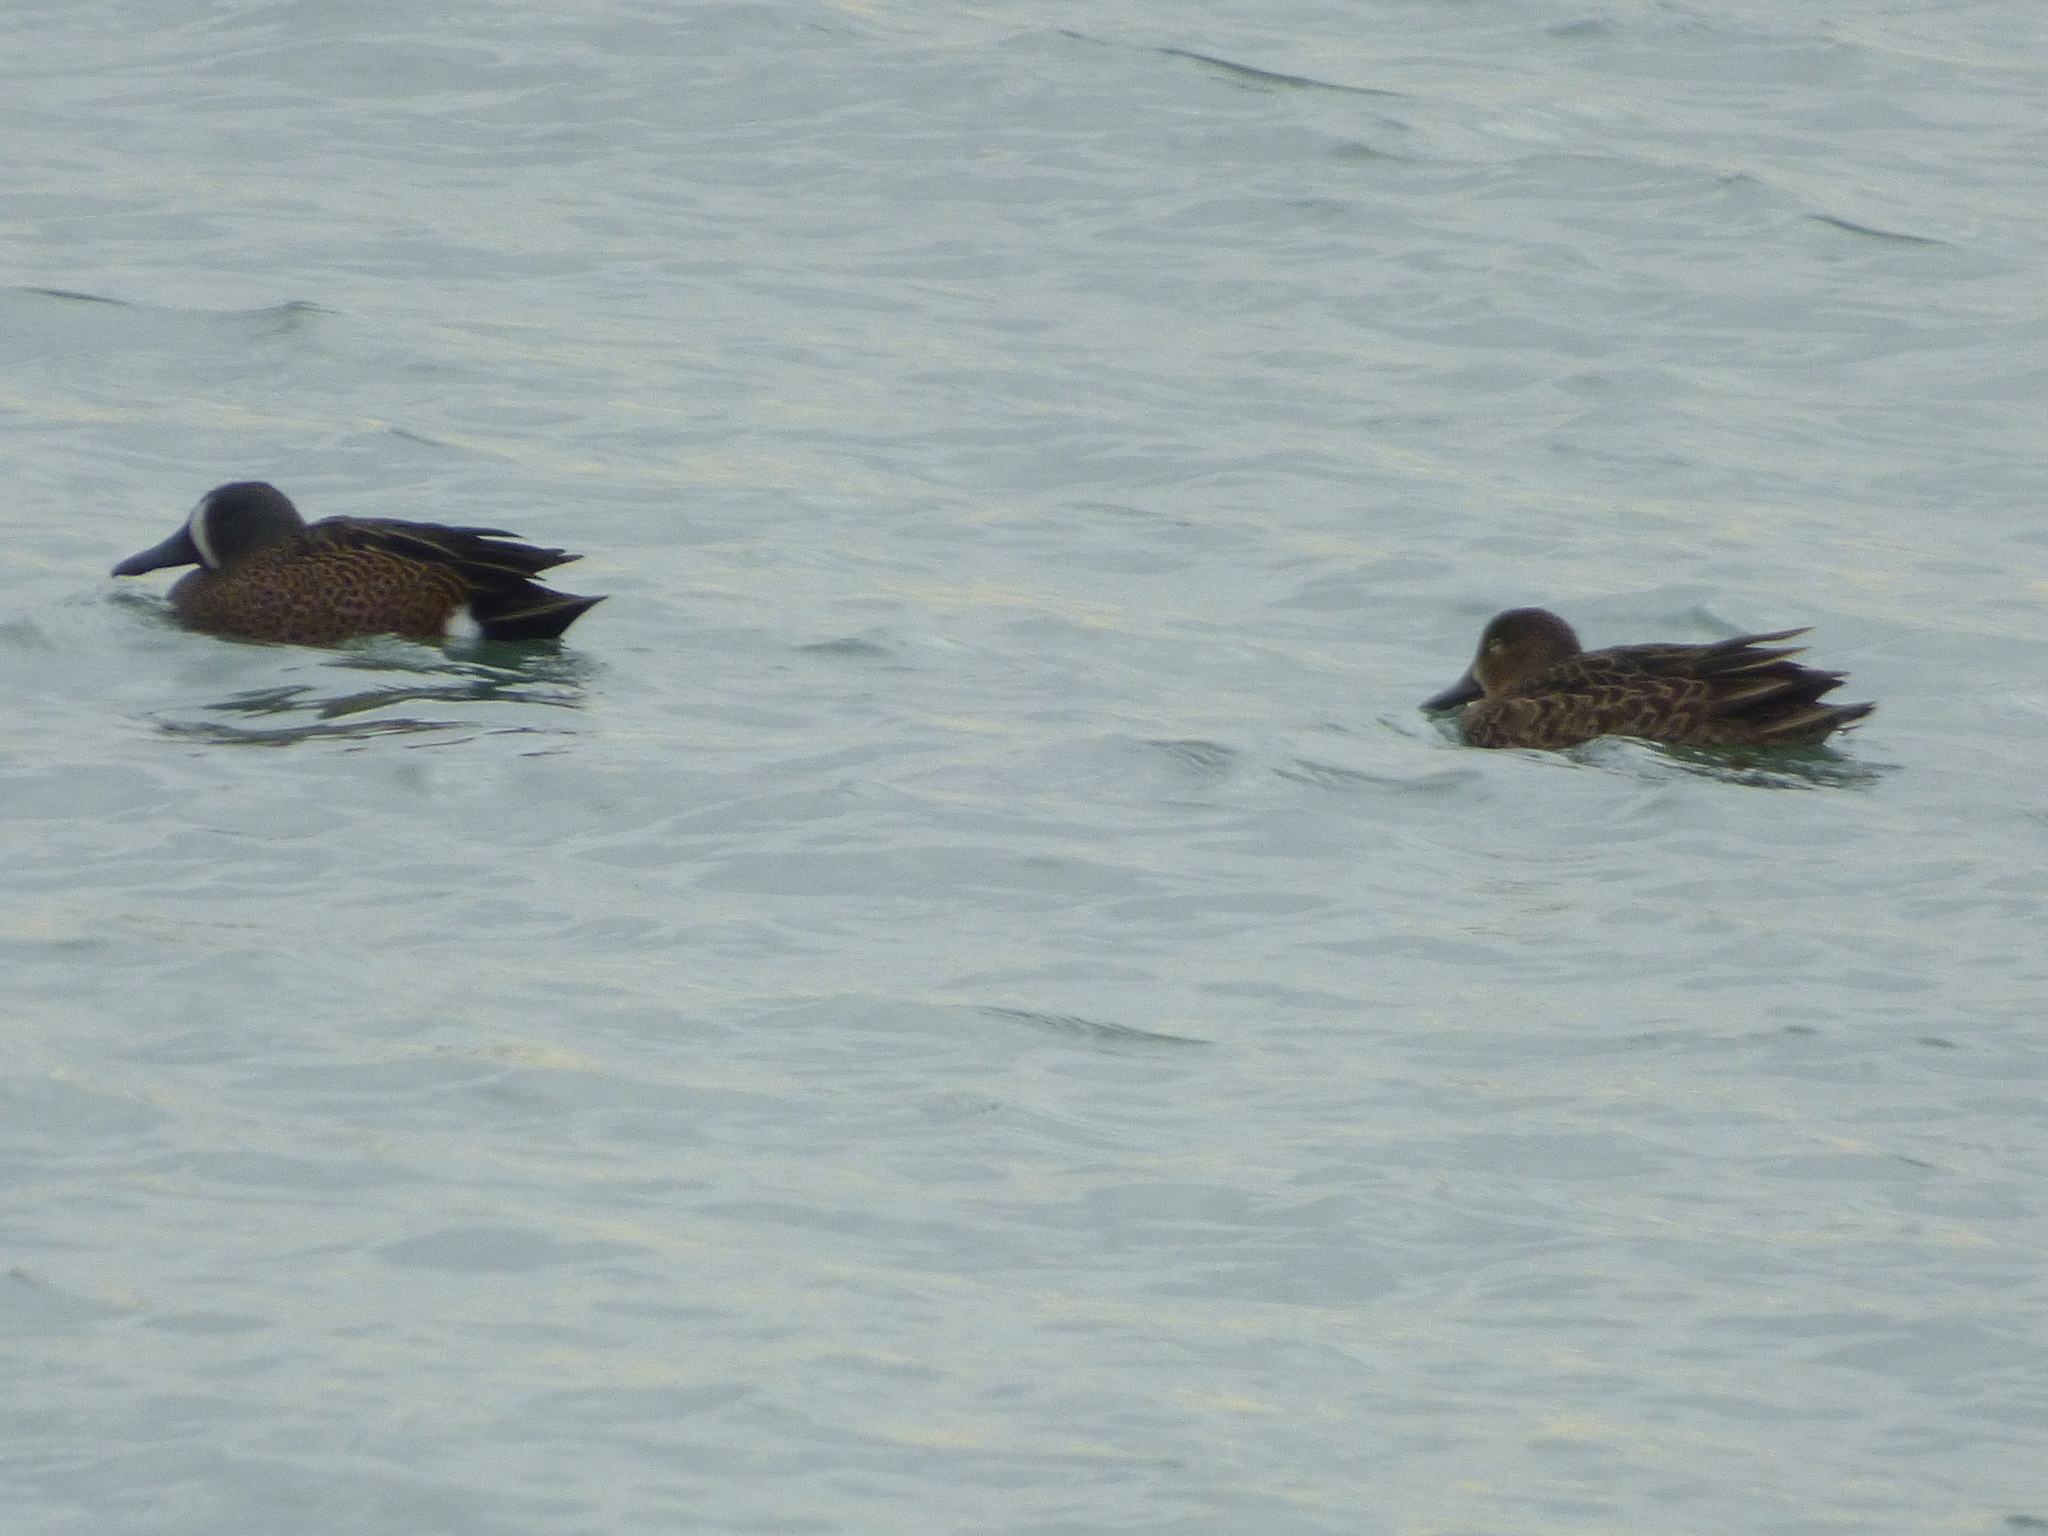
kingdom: Animalia
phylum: Chordata
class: Aves
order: Anseriformes
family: Anatidae
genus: Spatula
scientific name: Spatula discors
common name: Blue-winged teal
